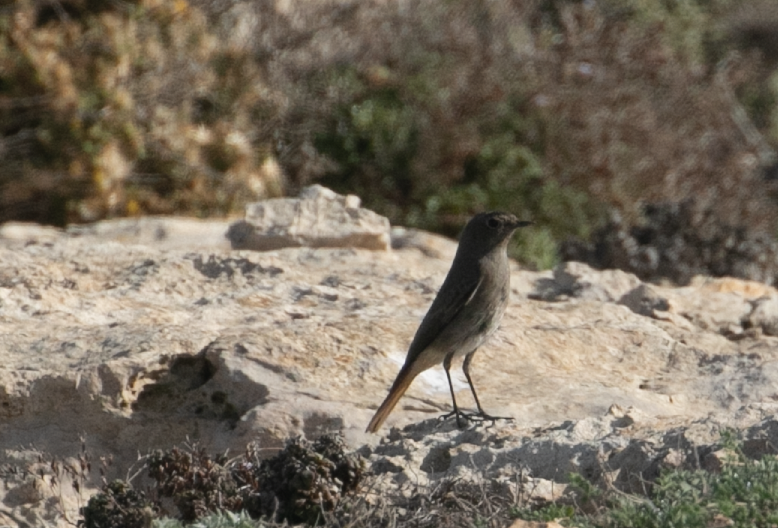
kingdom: Animalia
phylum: Chordata
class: Aves
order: Passeriformes
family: Muscicapidae
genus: Phoenicurus
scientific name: Phoenicurus ochruros
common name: Black redstart
